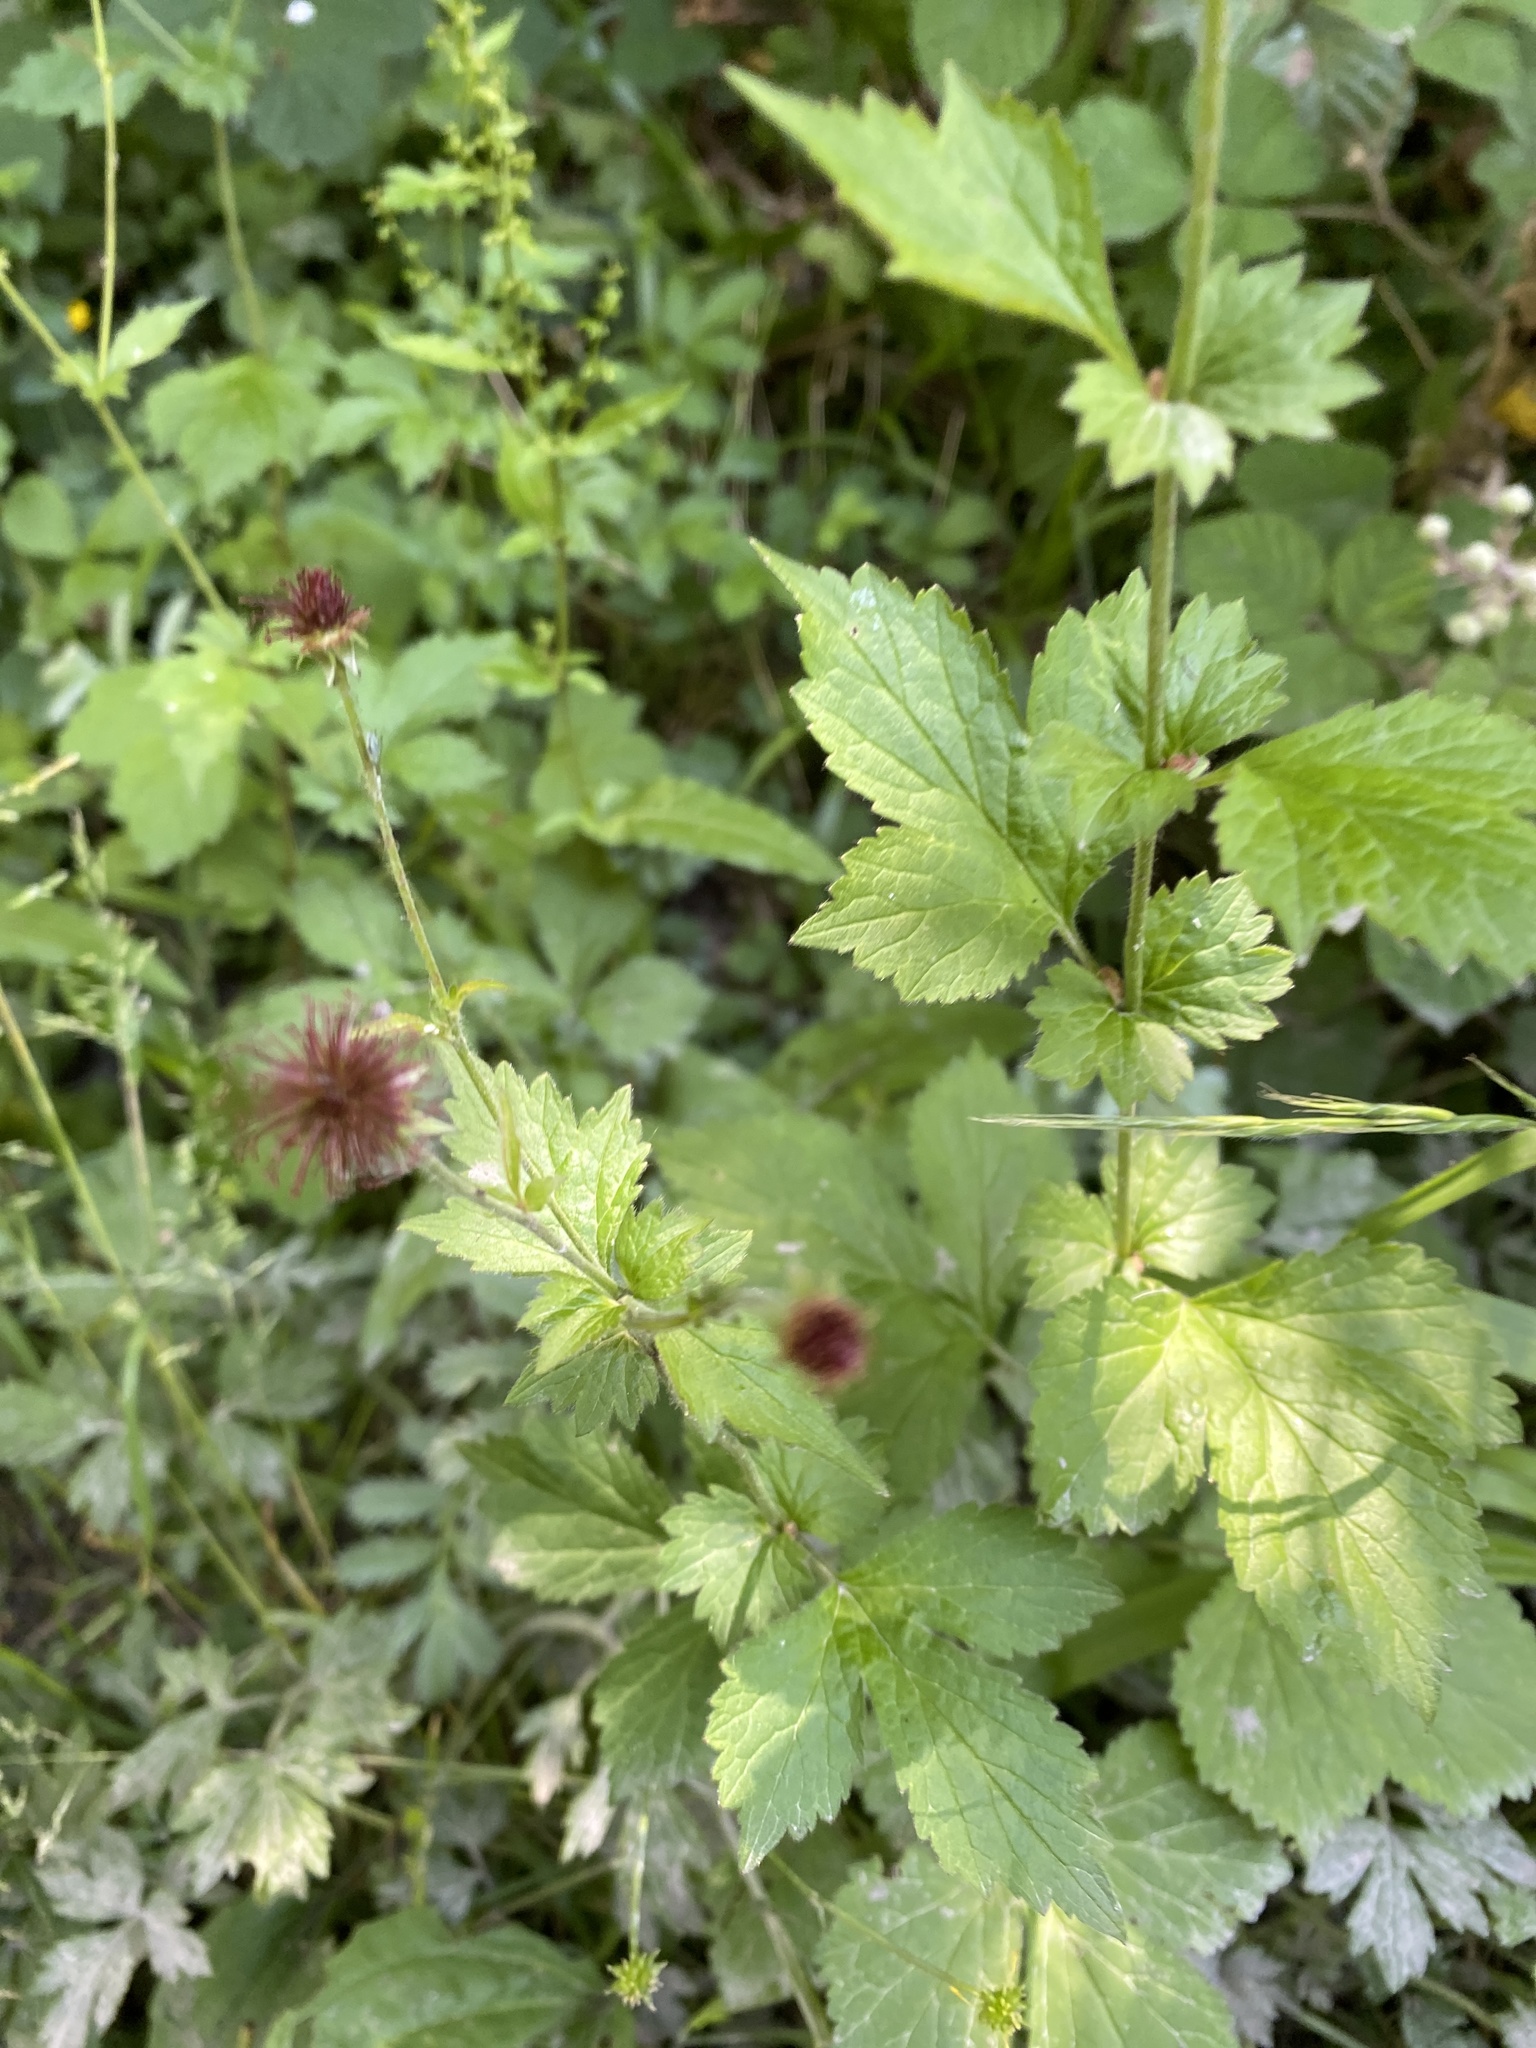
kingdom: Plantae
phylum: Tracheophyta
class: Magnoliopsida
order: Rosales
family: Rosaceae
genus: Geum
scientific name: Geum urbanum
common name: Wood avens
